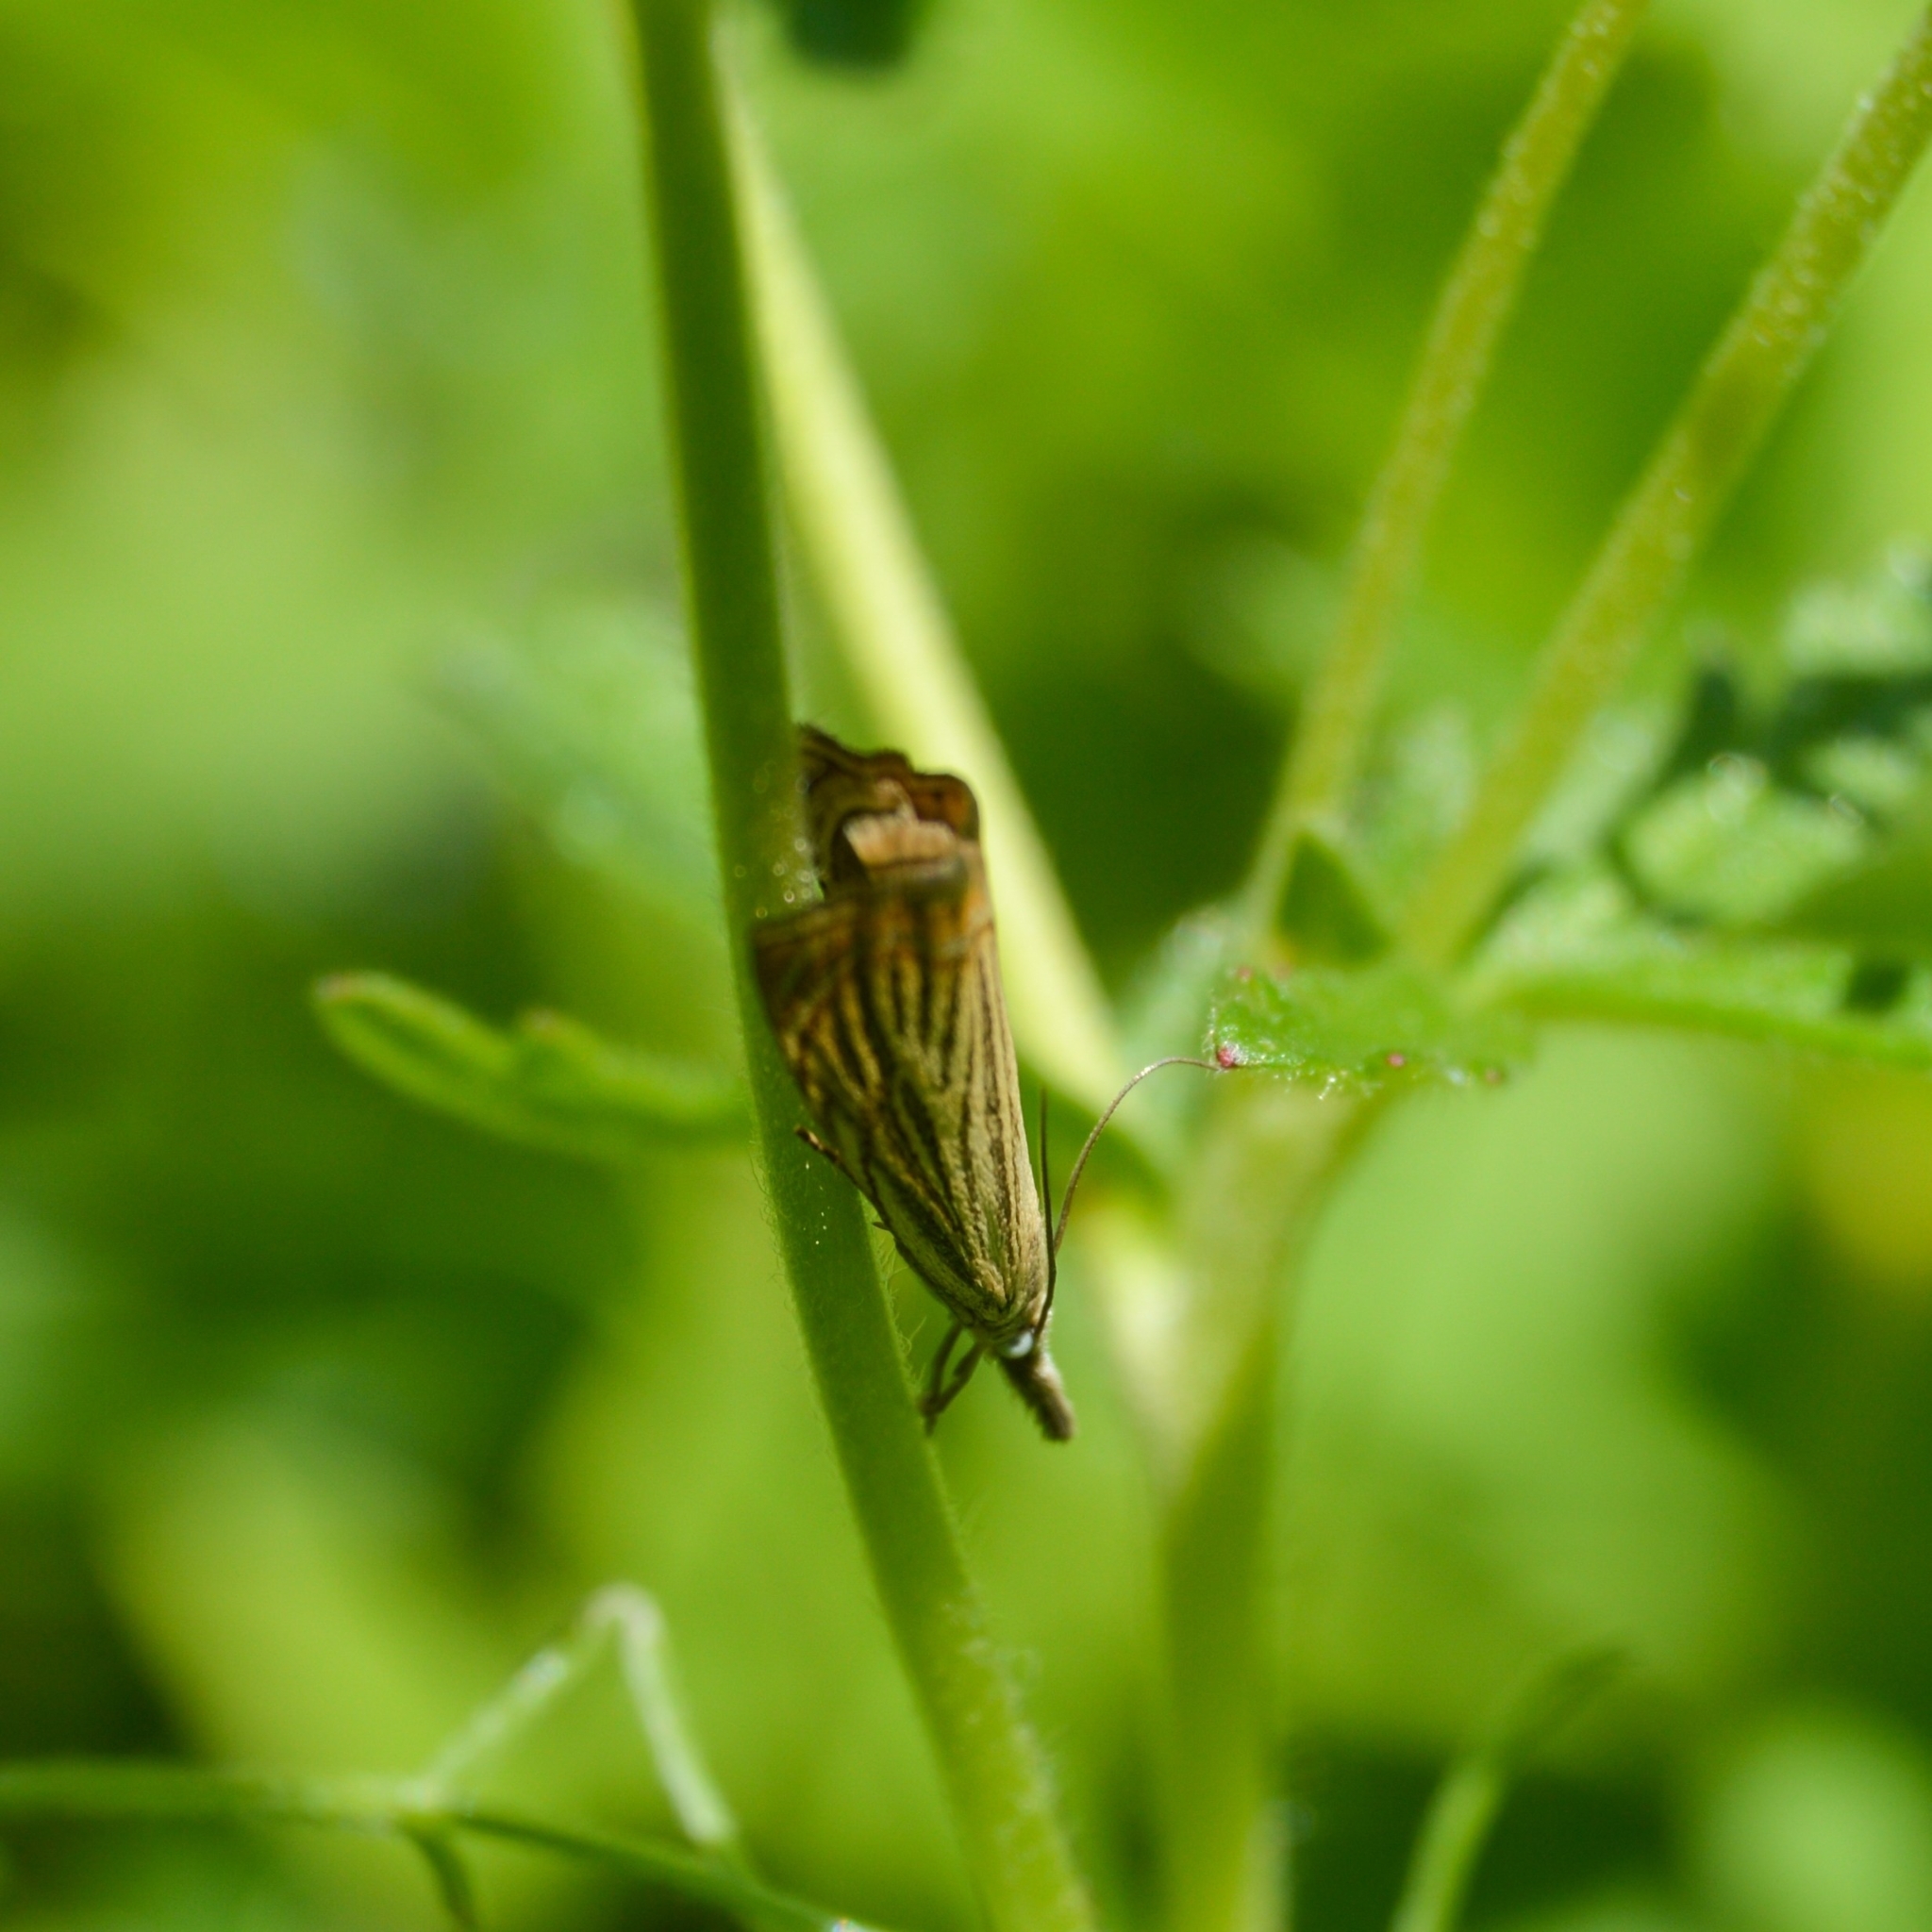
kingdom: Animalia
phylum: Arthropoda
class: Insecta
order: Lepidoptera
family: Crambidae
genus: Chrysoteuchia
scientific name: Chrysoteuchia culmella
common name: Garden grass-veneer
